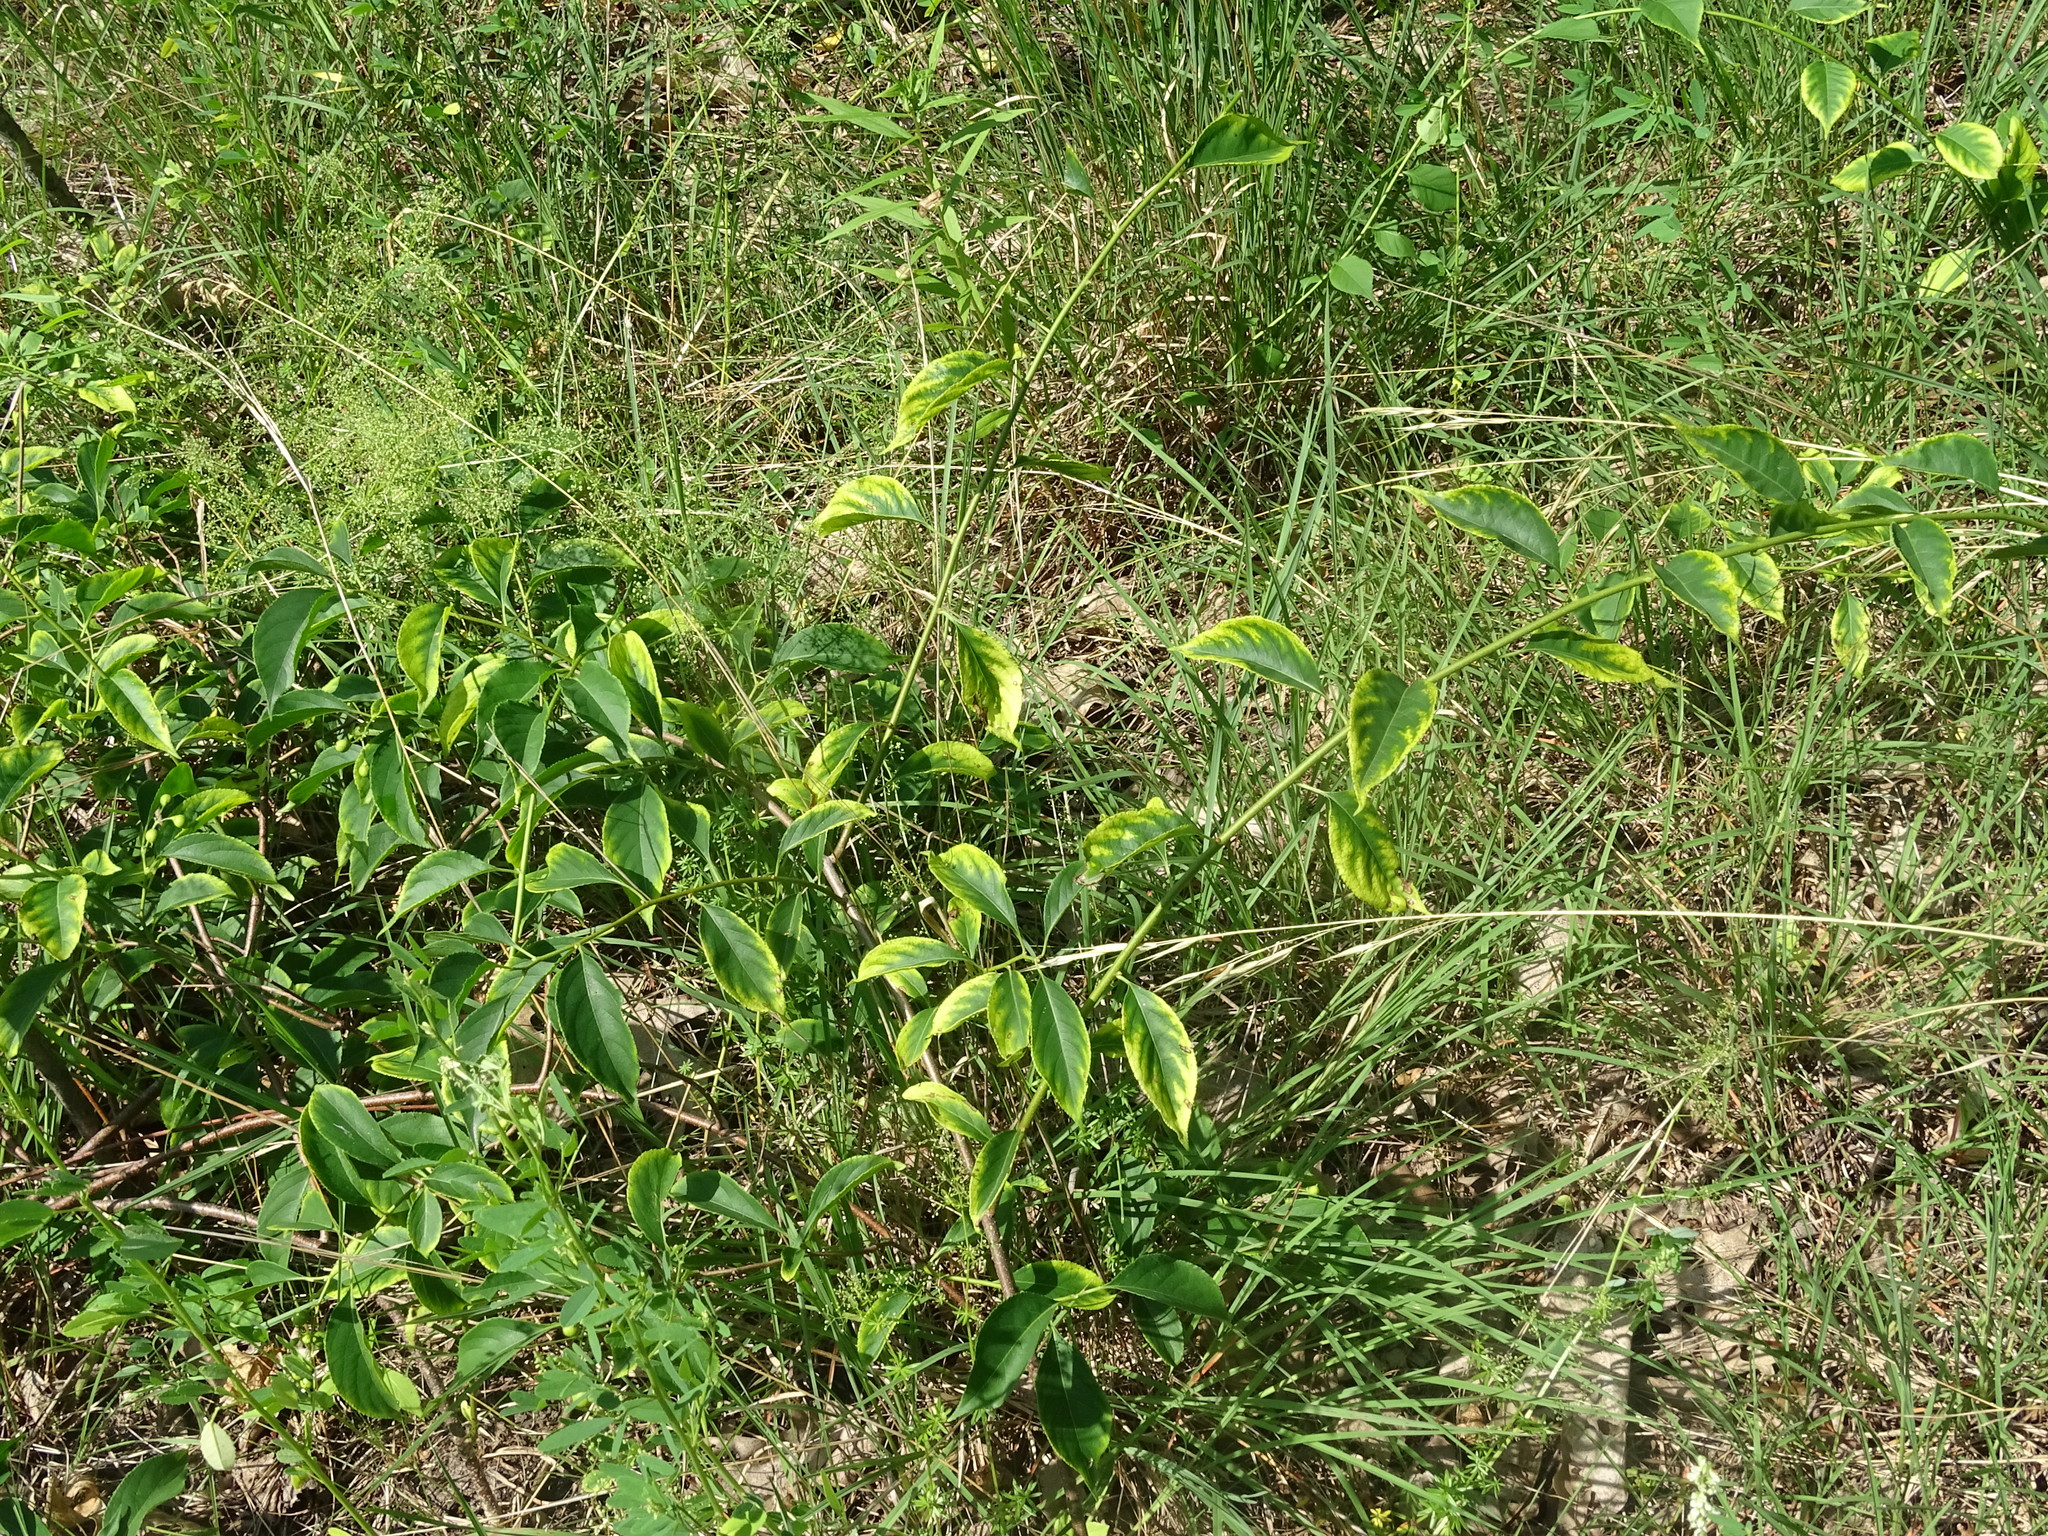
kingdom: Plantae
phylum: Tracheophyta
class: Magnoliopsida
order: Celastrales
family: Celastraceae
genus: Celastrus
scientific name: Celastrus scandens
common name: American bittersweet
